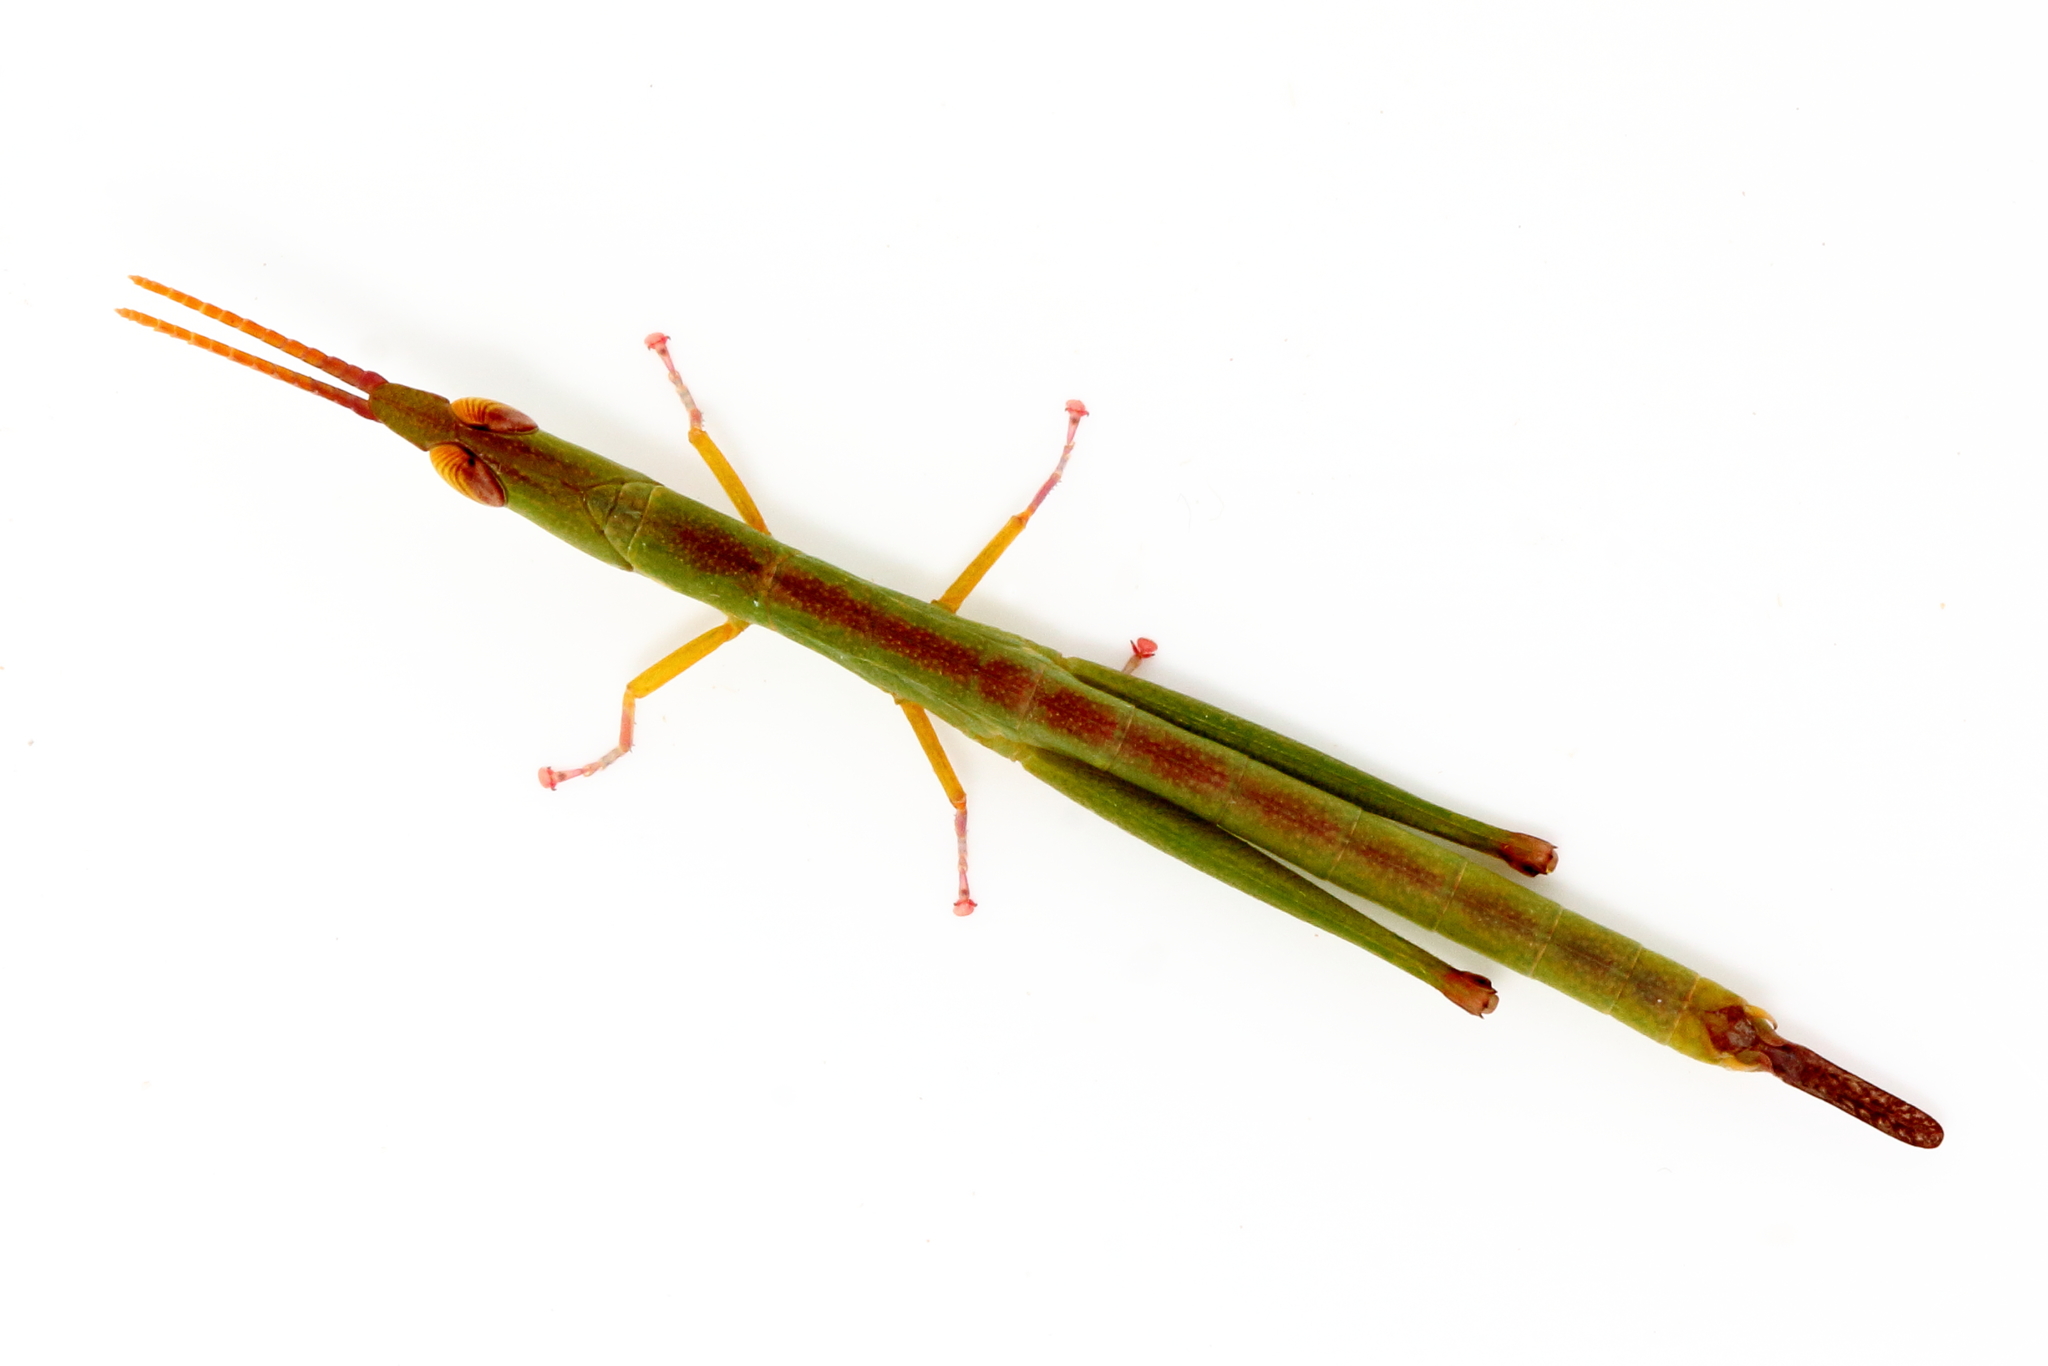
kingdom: Animalia
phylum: Arthropoda
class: Insecta
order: Orthoptera
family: Morabidae
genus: Warramaba
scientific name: Warramaba grandis
